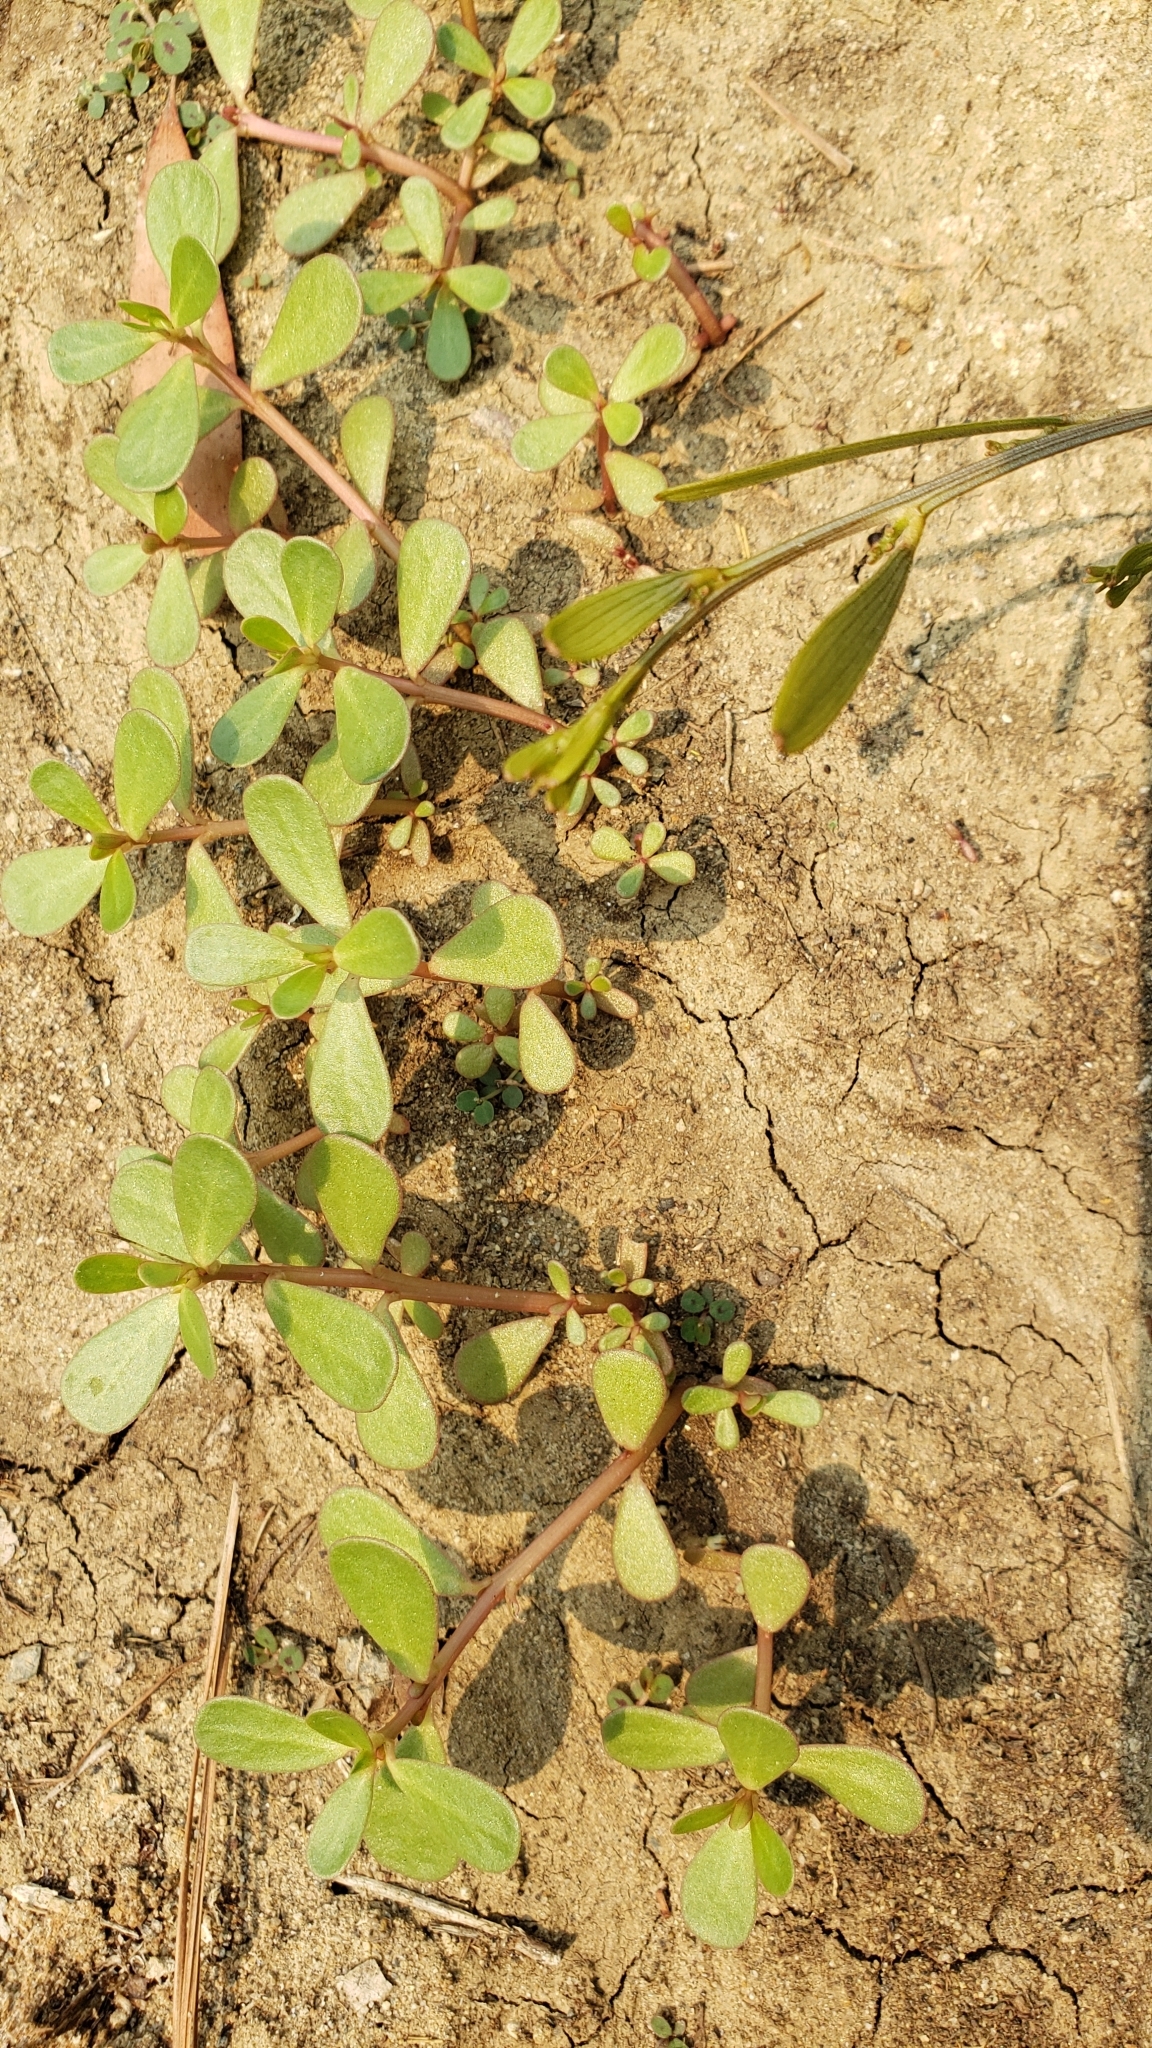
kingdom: Plantae
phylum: Tracheophyta
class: Magnoliopsida
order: Caryophyllales
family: Portulacaceae
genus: Portulaca
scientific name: Portulaca oleracea
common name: Common purslane
